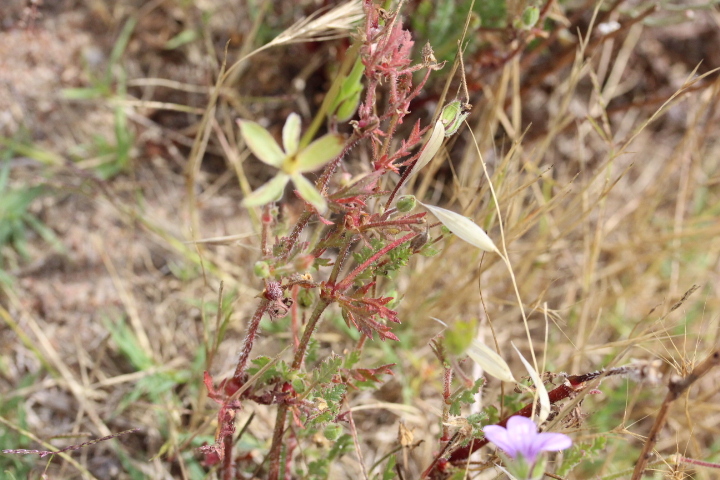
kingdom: Plantae
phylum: Tracheophyta
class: Magnoliopsida
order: Geraniales
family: Geraniaceae
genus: Erodium
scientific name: Erodium botrys
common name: Mediterranean stork's-bill
